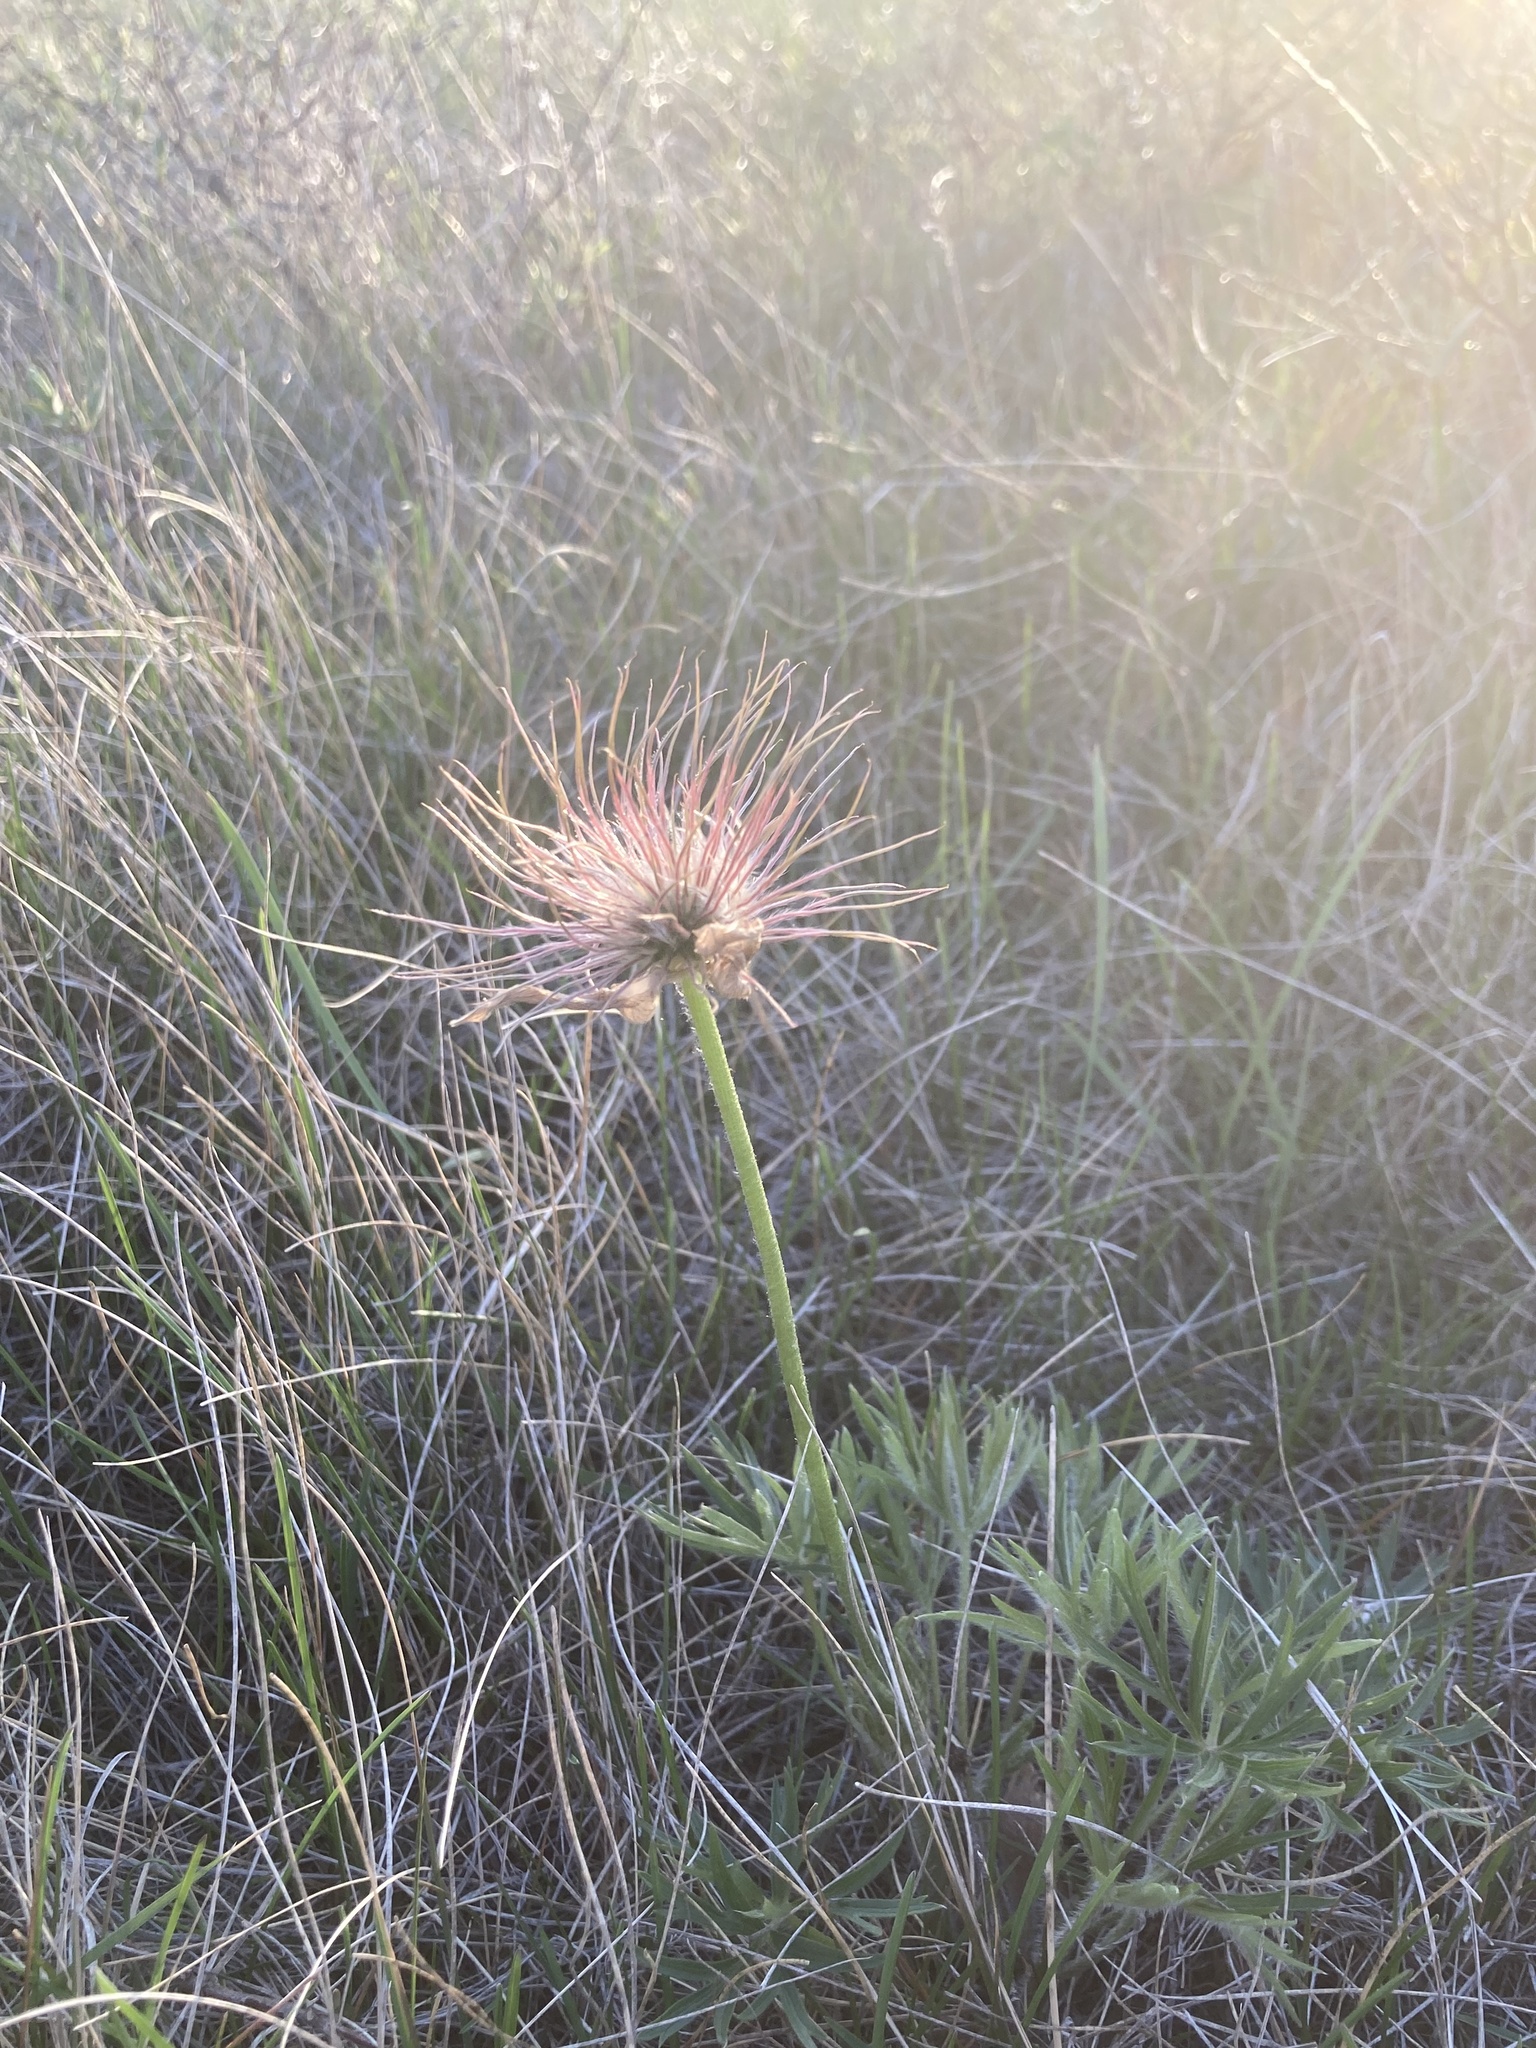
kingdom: Plantae
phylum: Tracheophyta
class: Magnoliopsida
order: Ranunculales
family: Ranunculaceae
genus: Pulsatilla
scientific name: Pulsatilla nuttalliana
